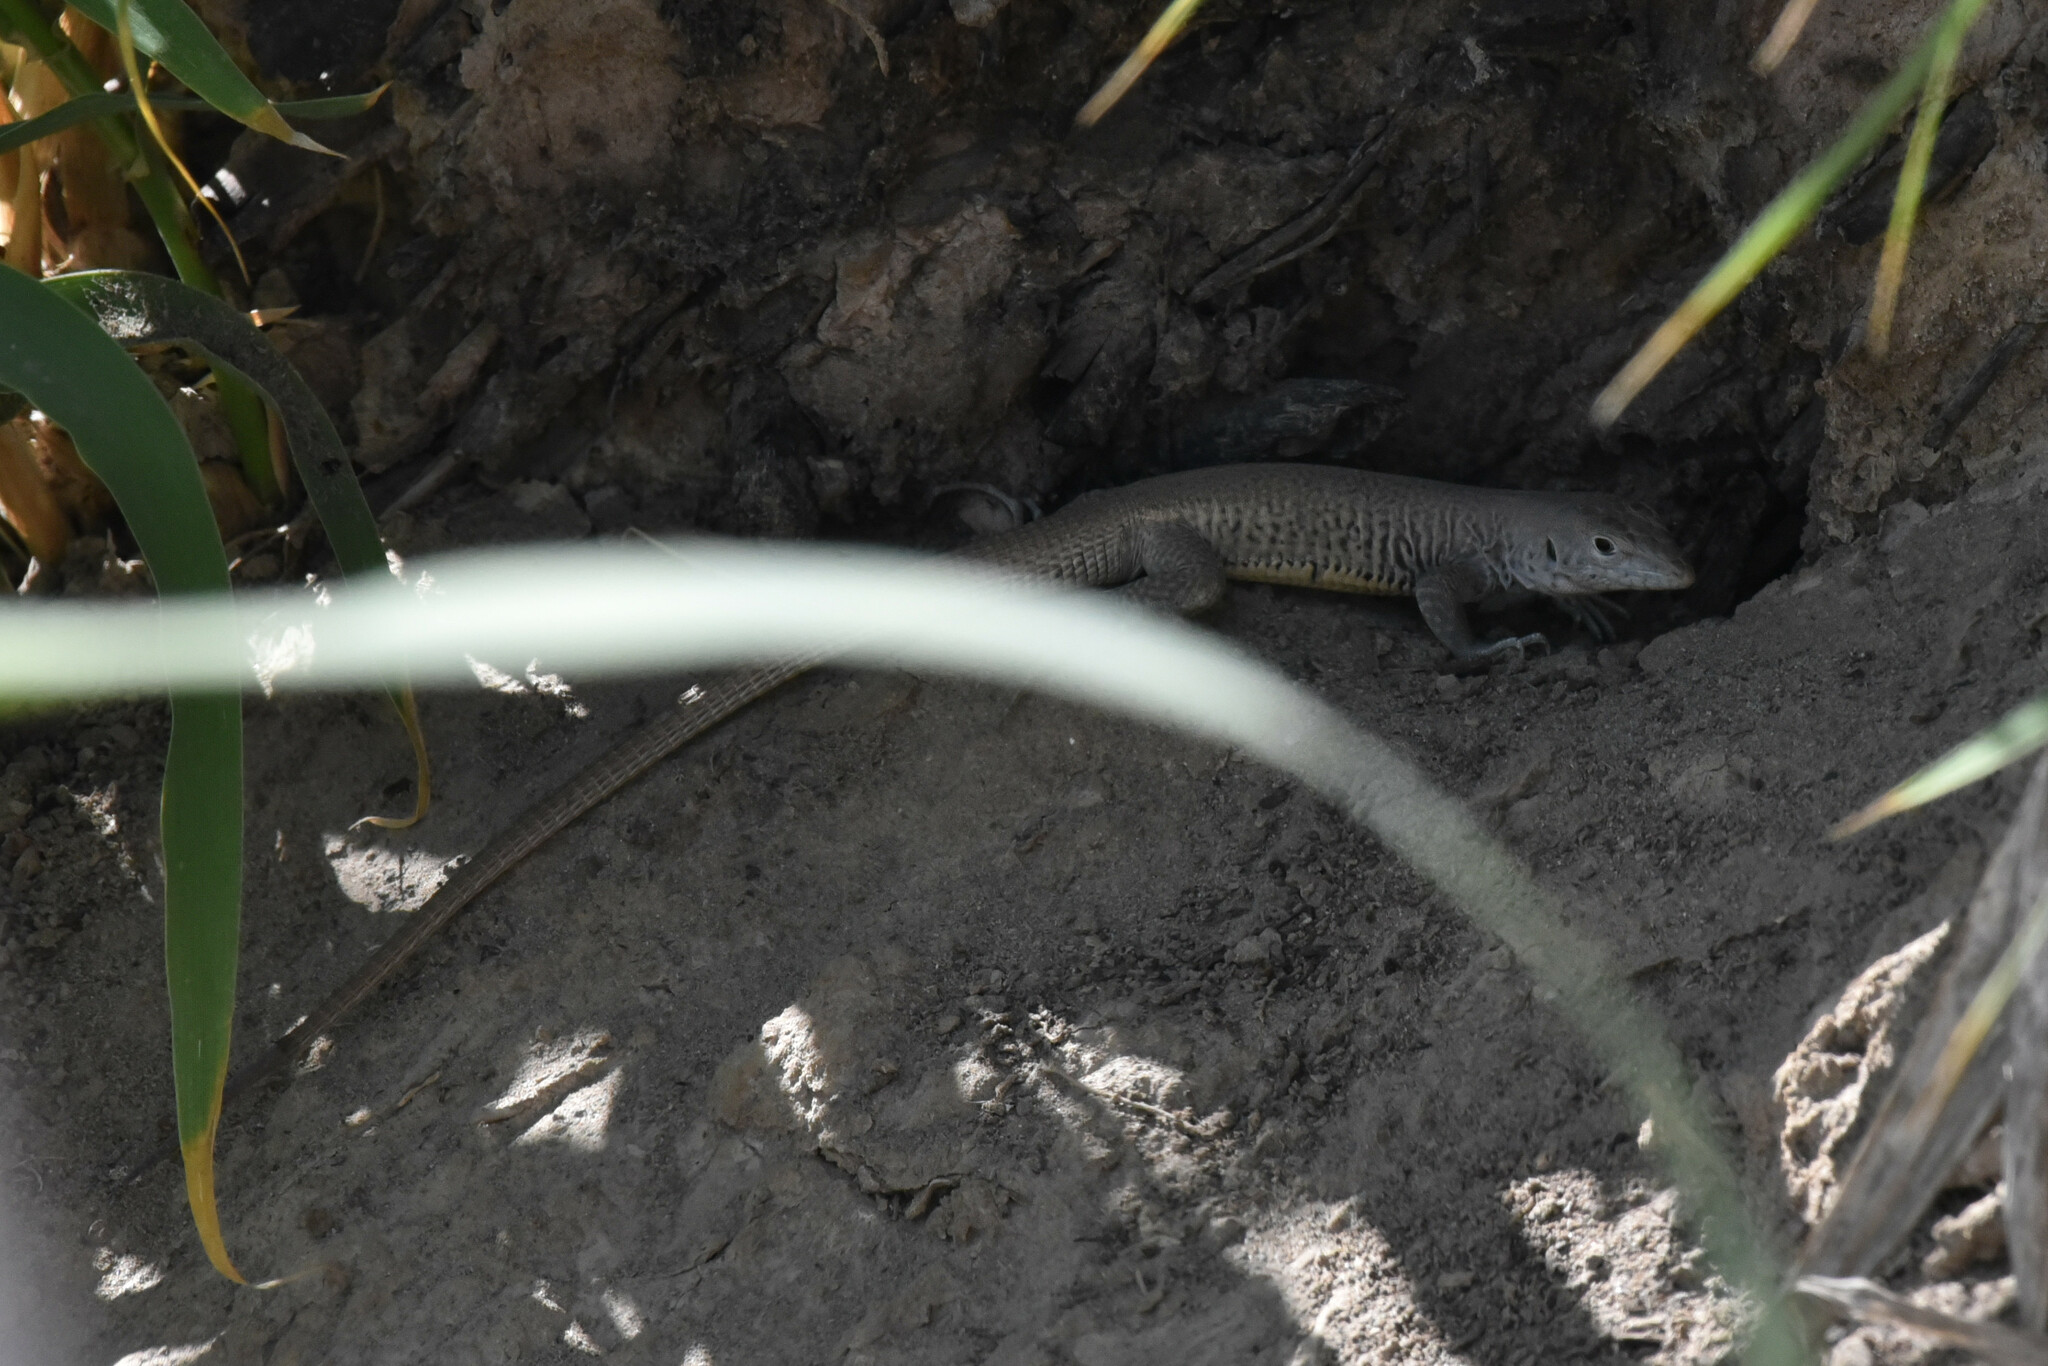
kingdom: Animalia
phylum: Chordata
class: Squamata
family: Teiidae
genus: Aspidoscelis
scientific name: Aspidoscelis marmoratus
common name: Eastern marbled whiptail [reticuloriens]
